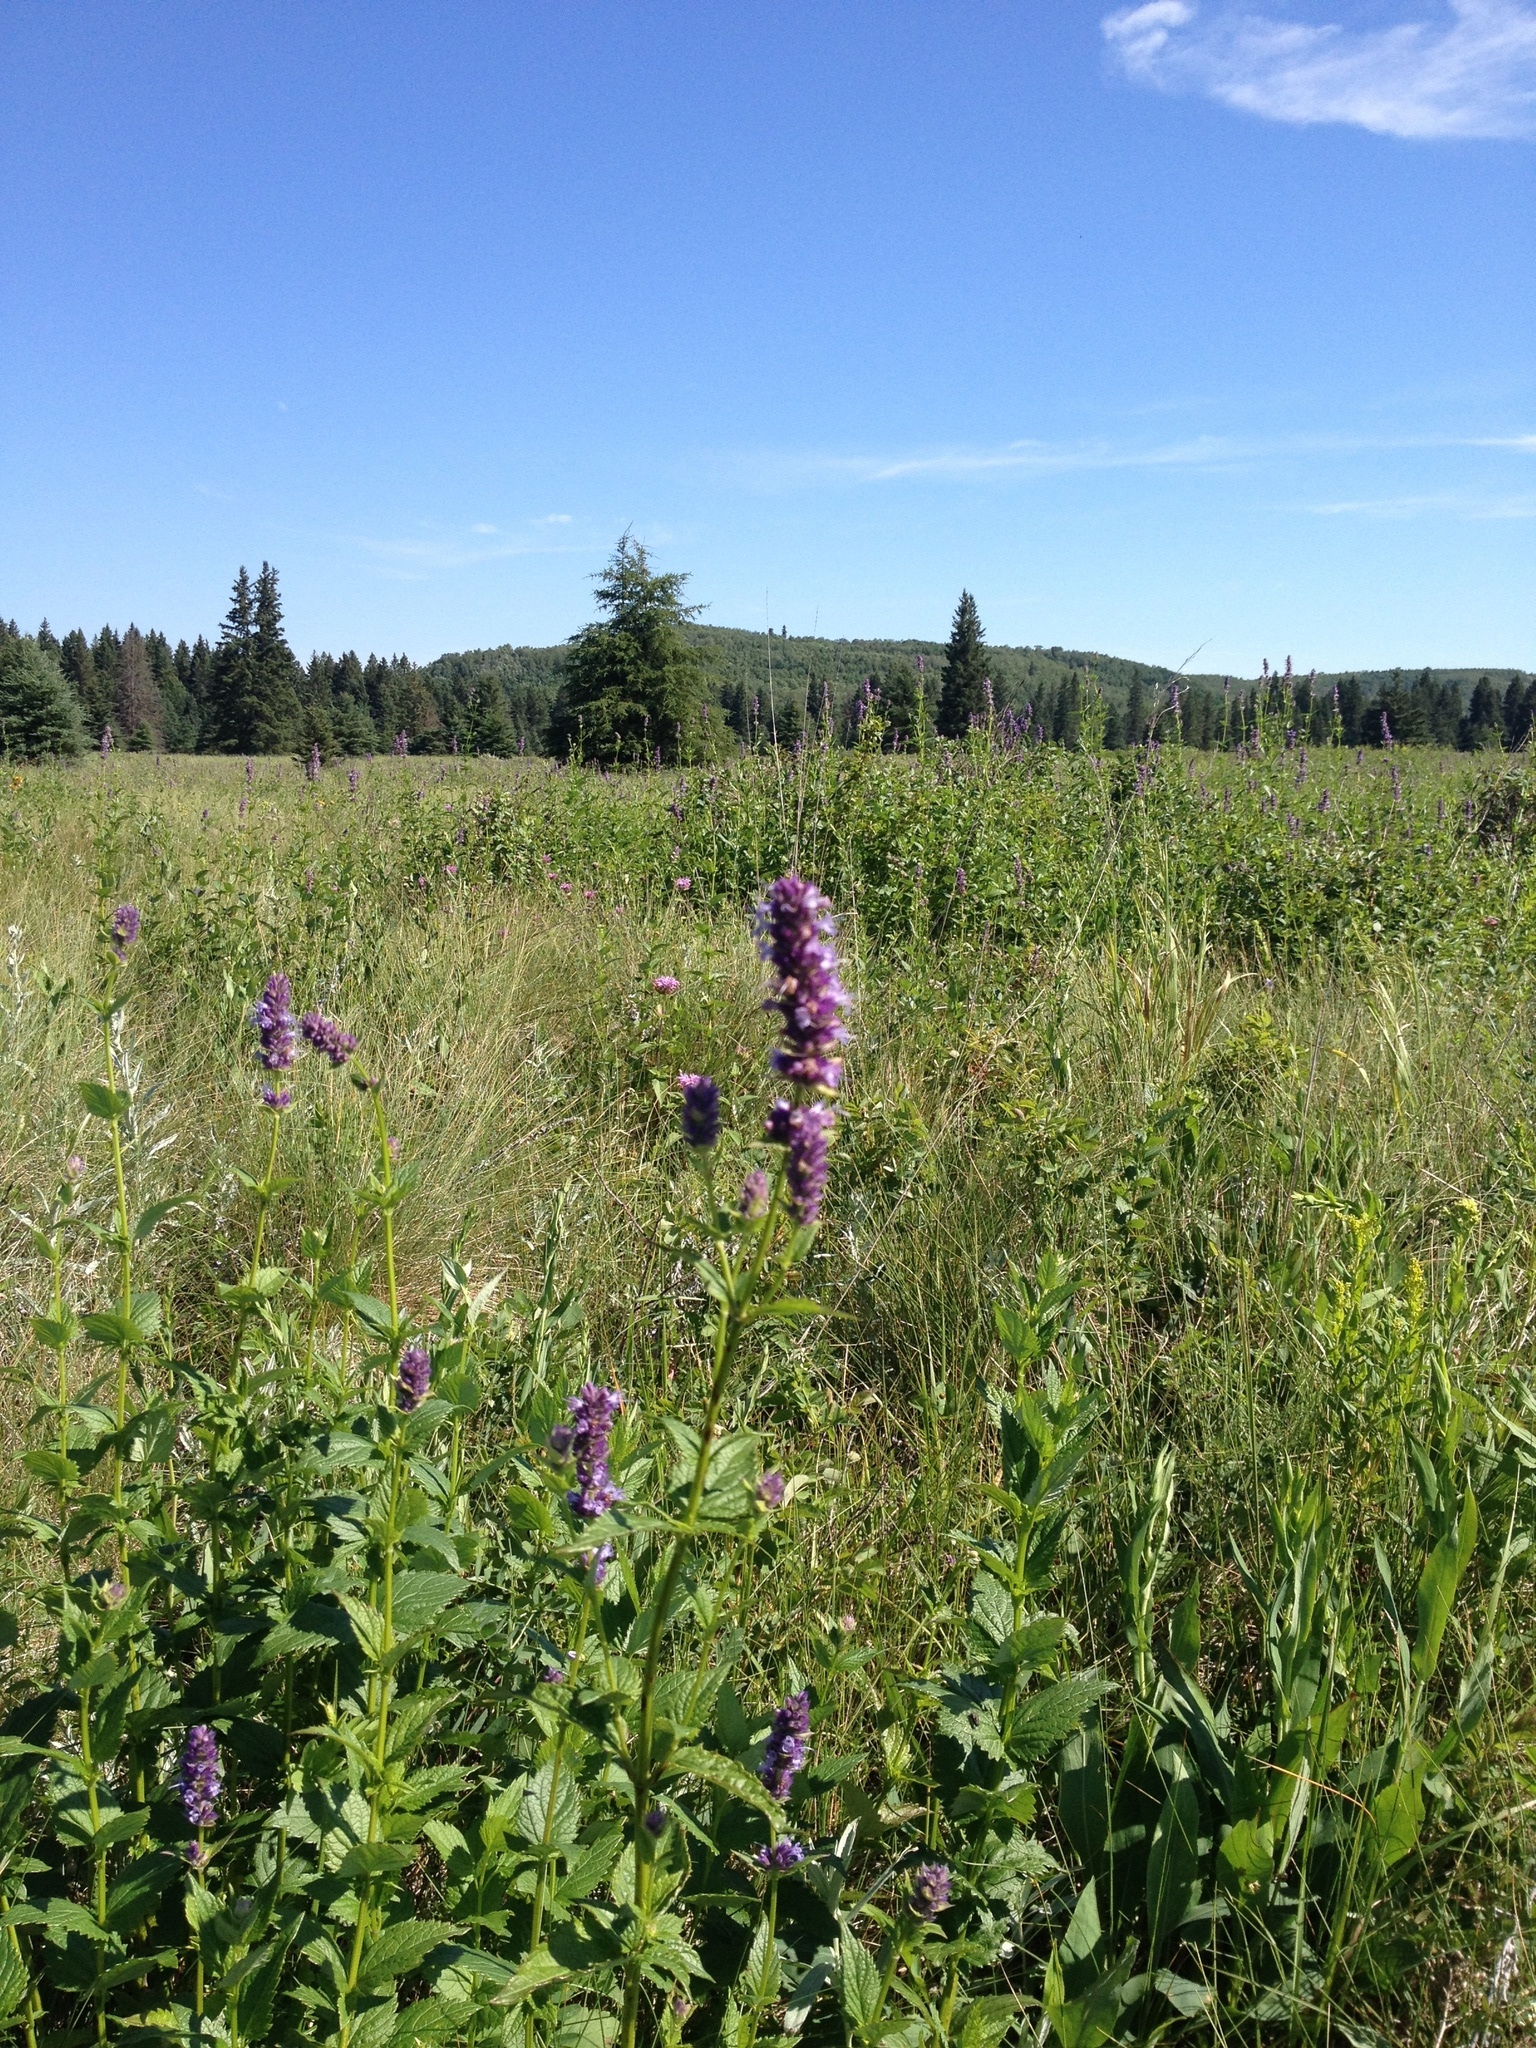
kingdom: Plantae
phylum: Tracheophyta
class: Magnoliopsida
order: Lamiales
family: Lamiaceae
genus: Agastache
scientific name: Agastache foeniculum
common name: Anise hyssop
